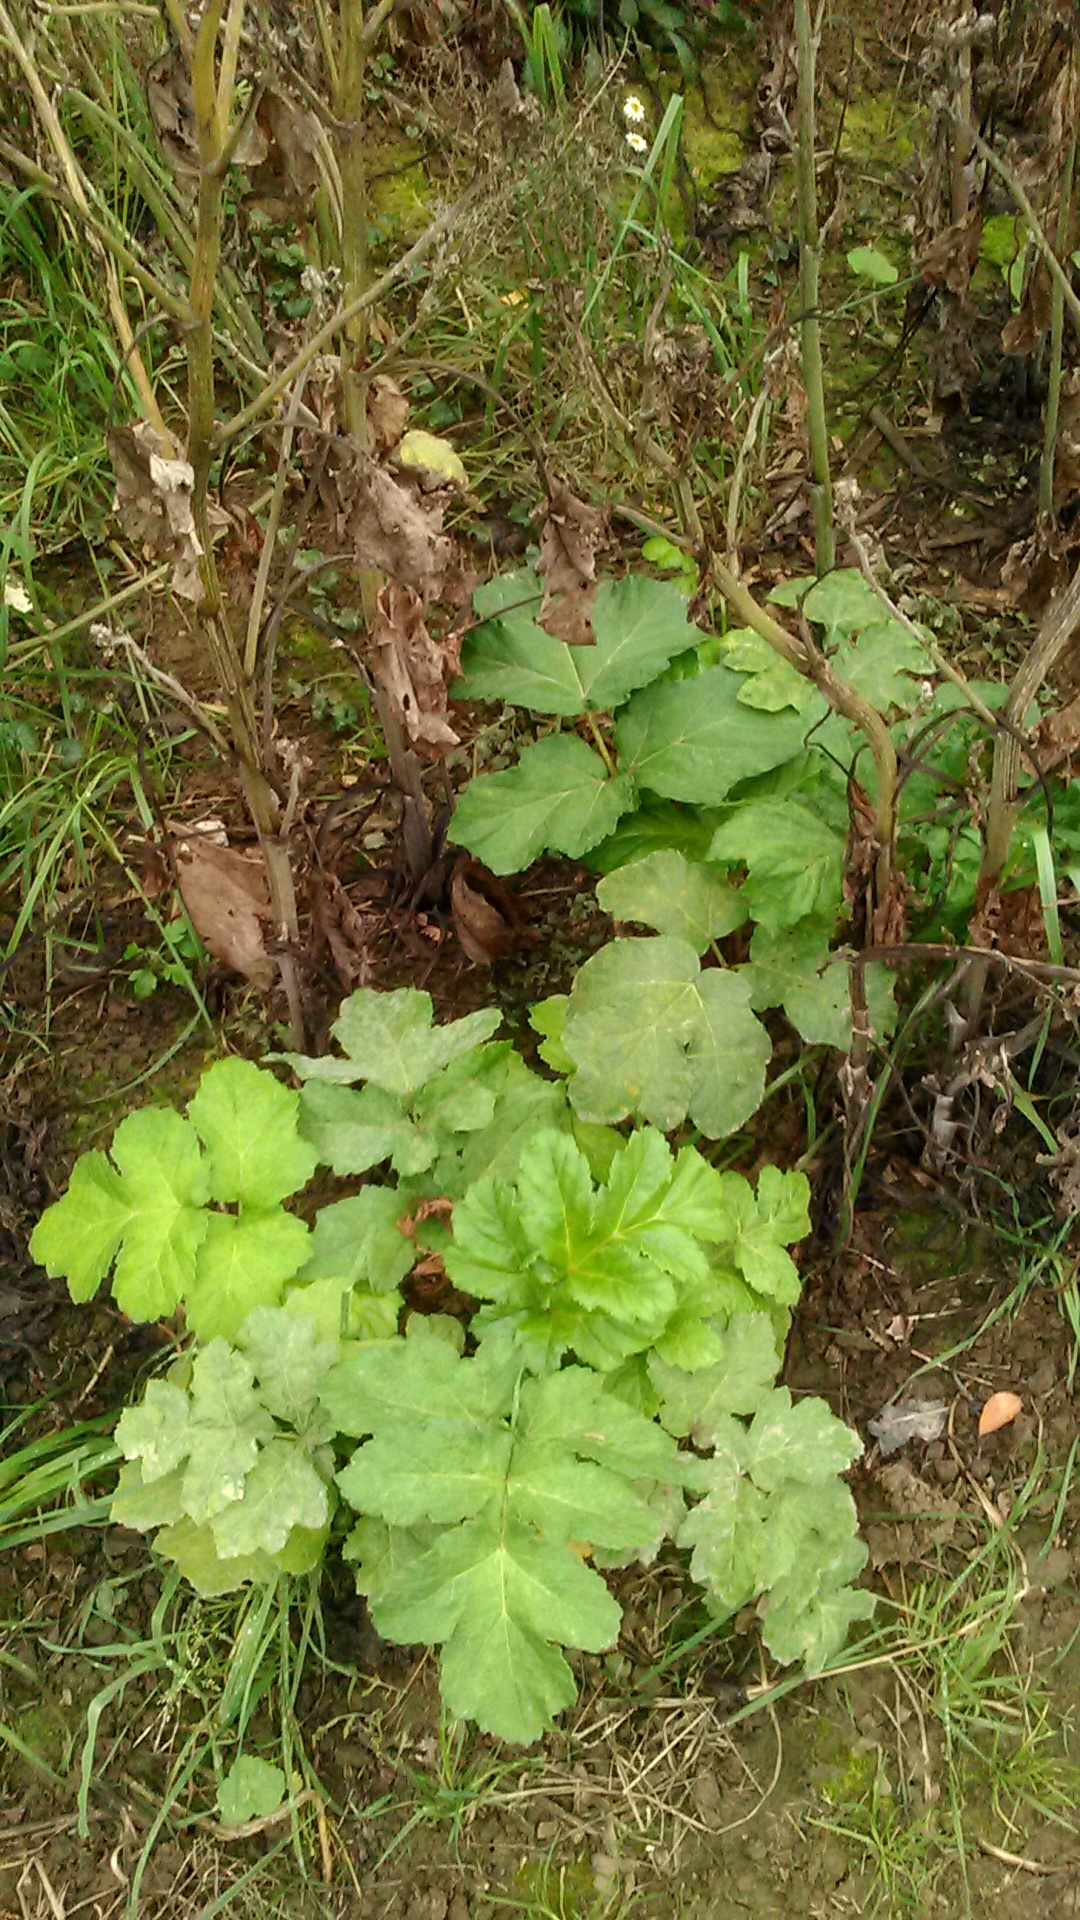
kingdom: Plantae
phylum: Tracheophyta
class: Magnoliopsida
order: Apiales
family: Apiaceae
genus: Heracleum
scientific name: Heracleum sosnowskyi
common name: Sosnowsky's hogweed
